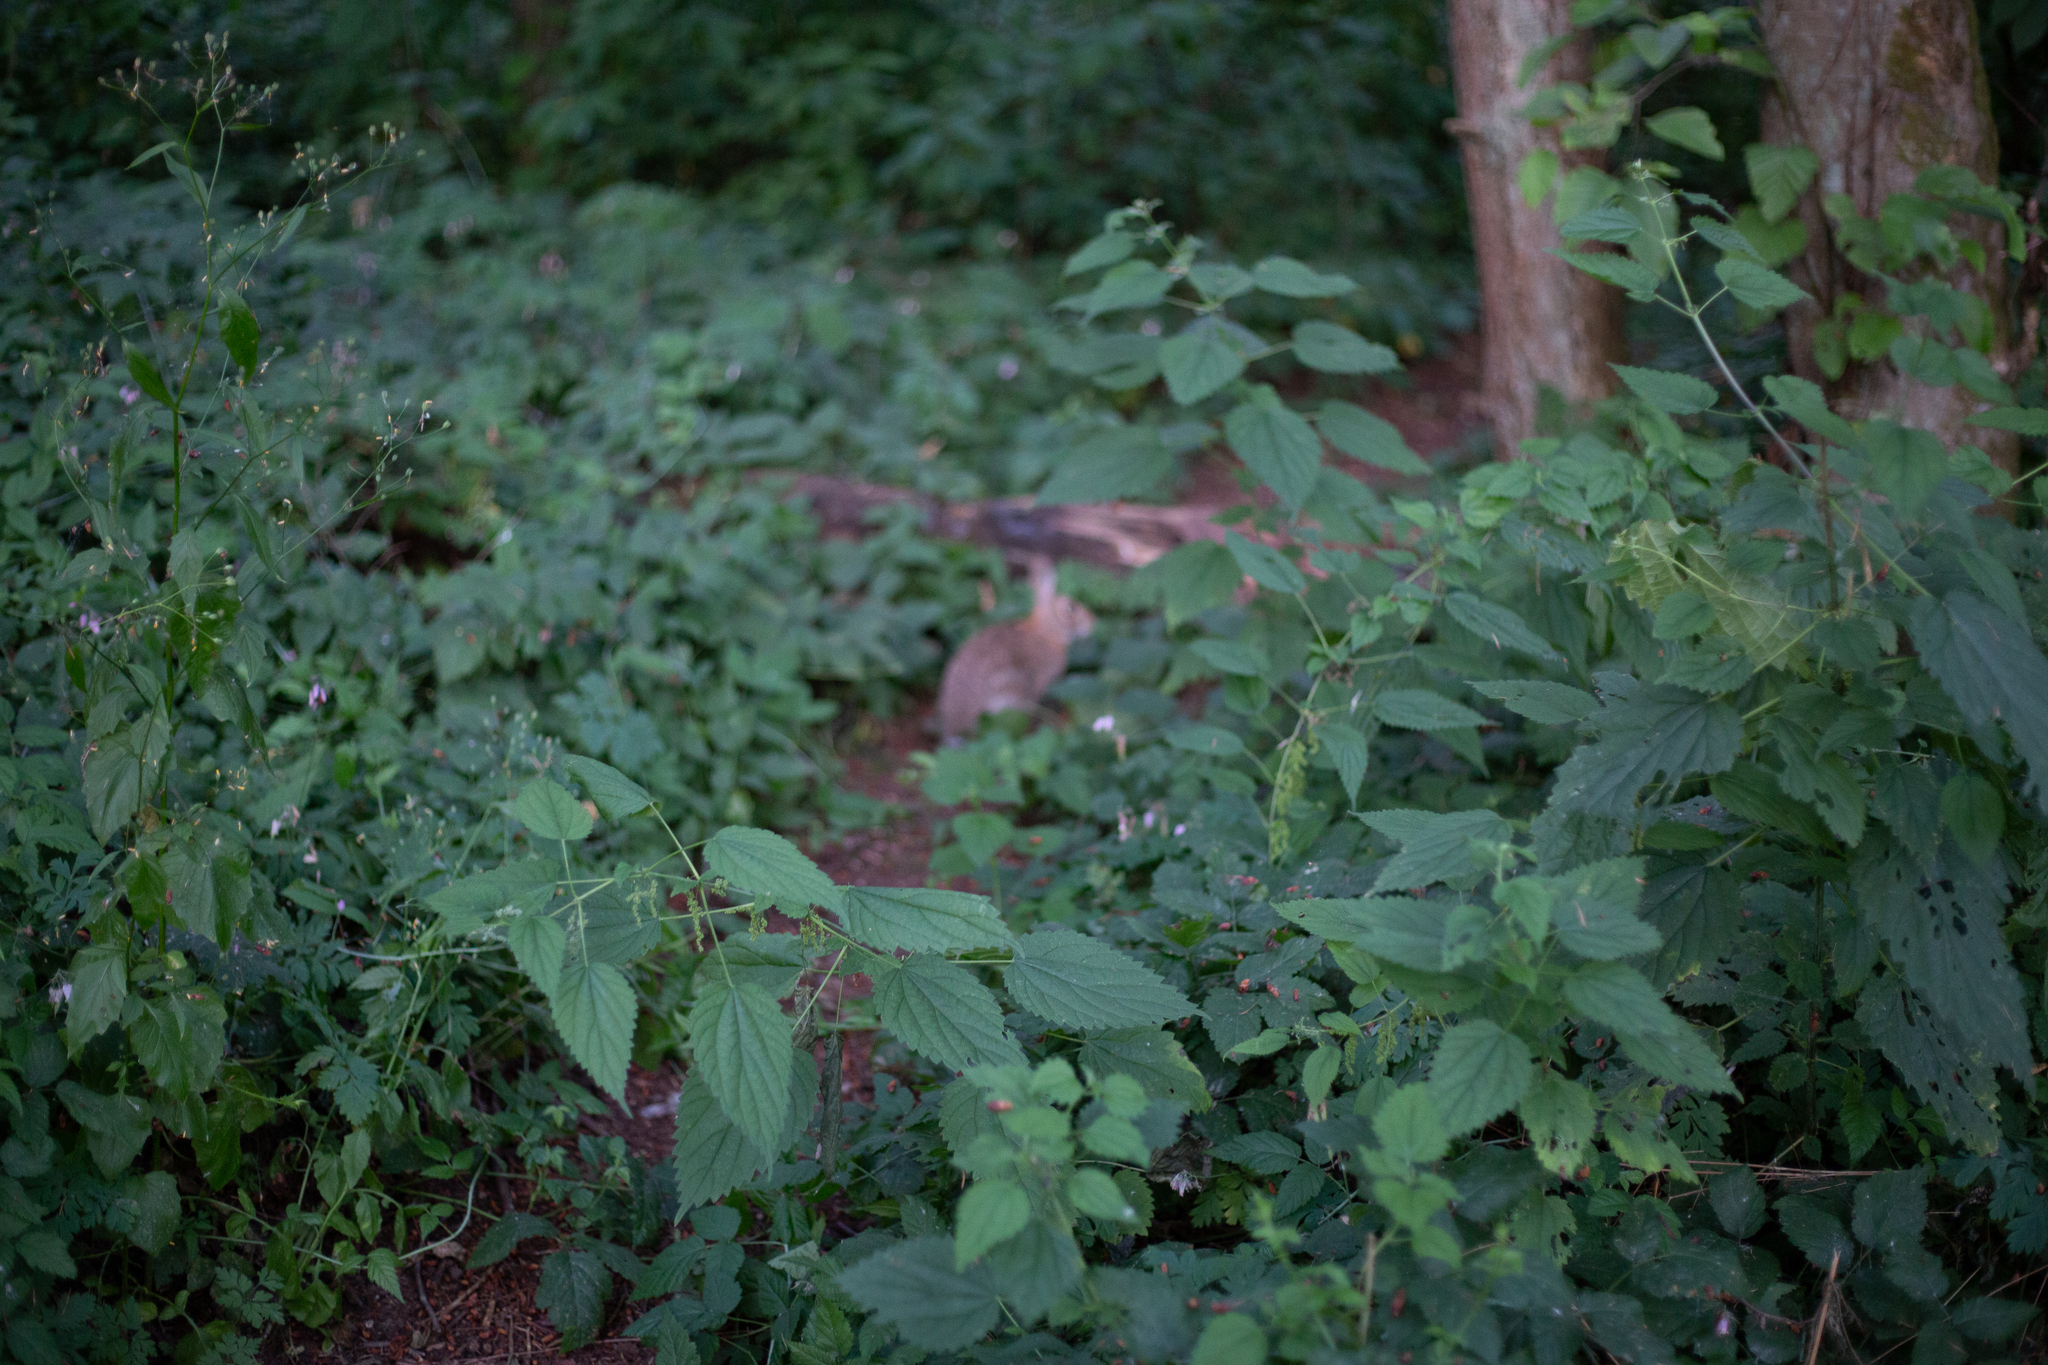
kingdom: Animalia
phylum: Chordata
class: Mammalia
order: Lagomorpha
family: Leporidae
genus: Sylvilagus
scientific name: Sylvilagus floridanus
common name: Eastern cottontail
